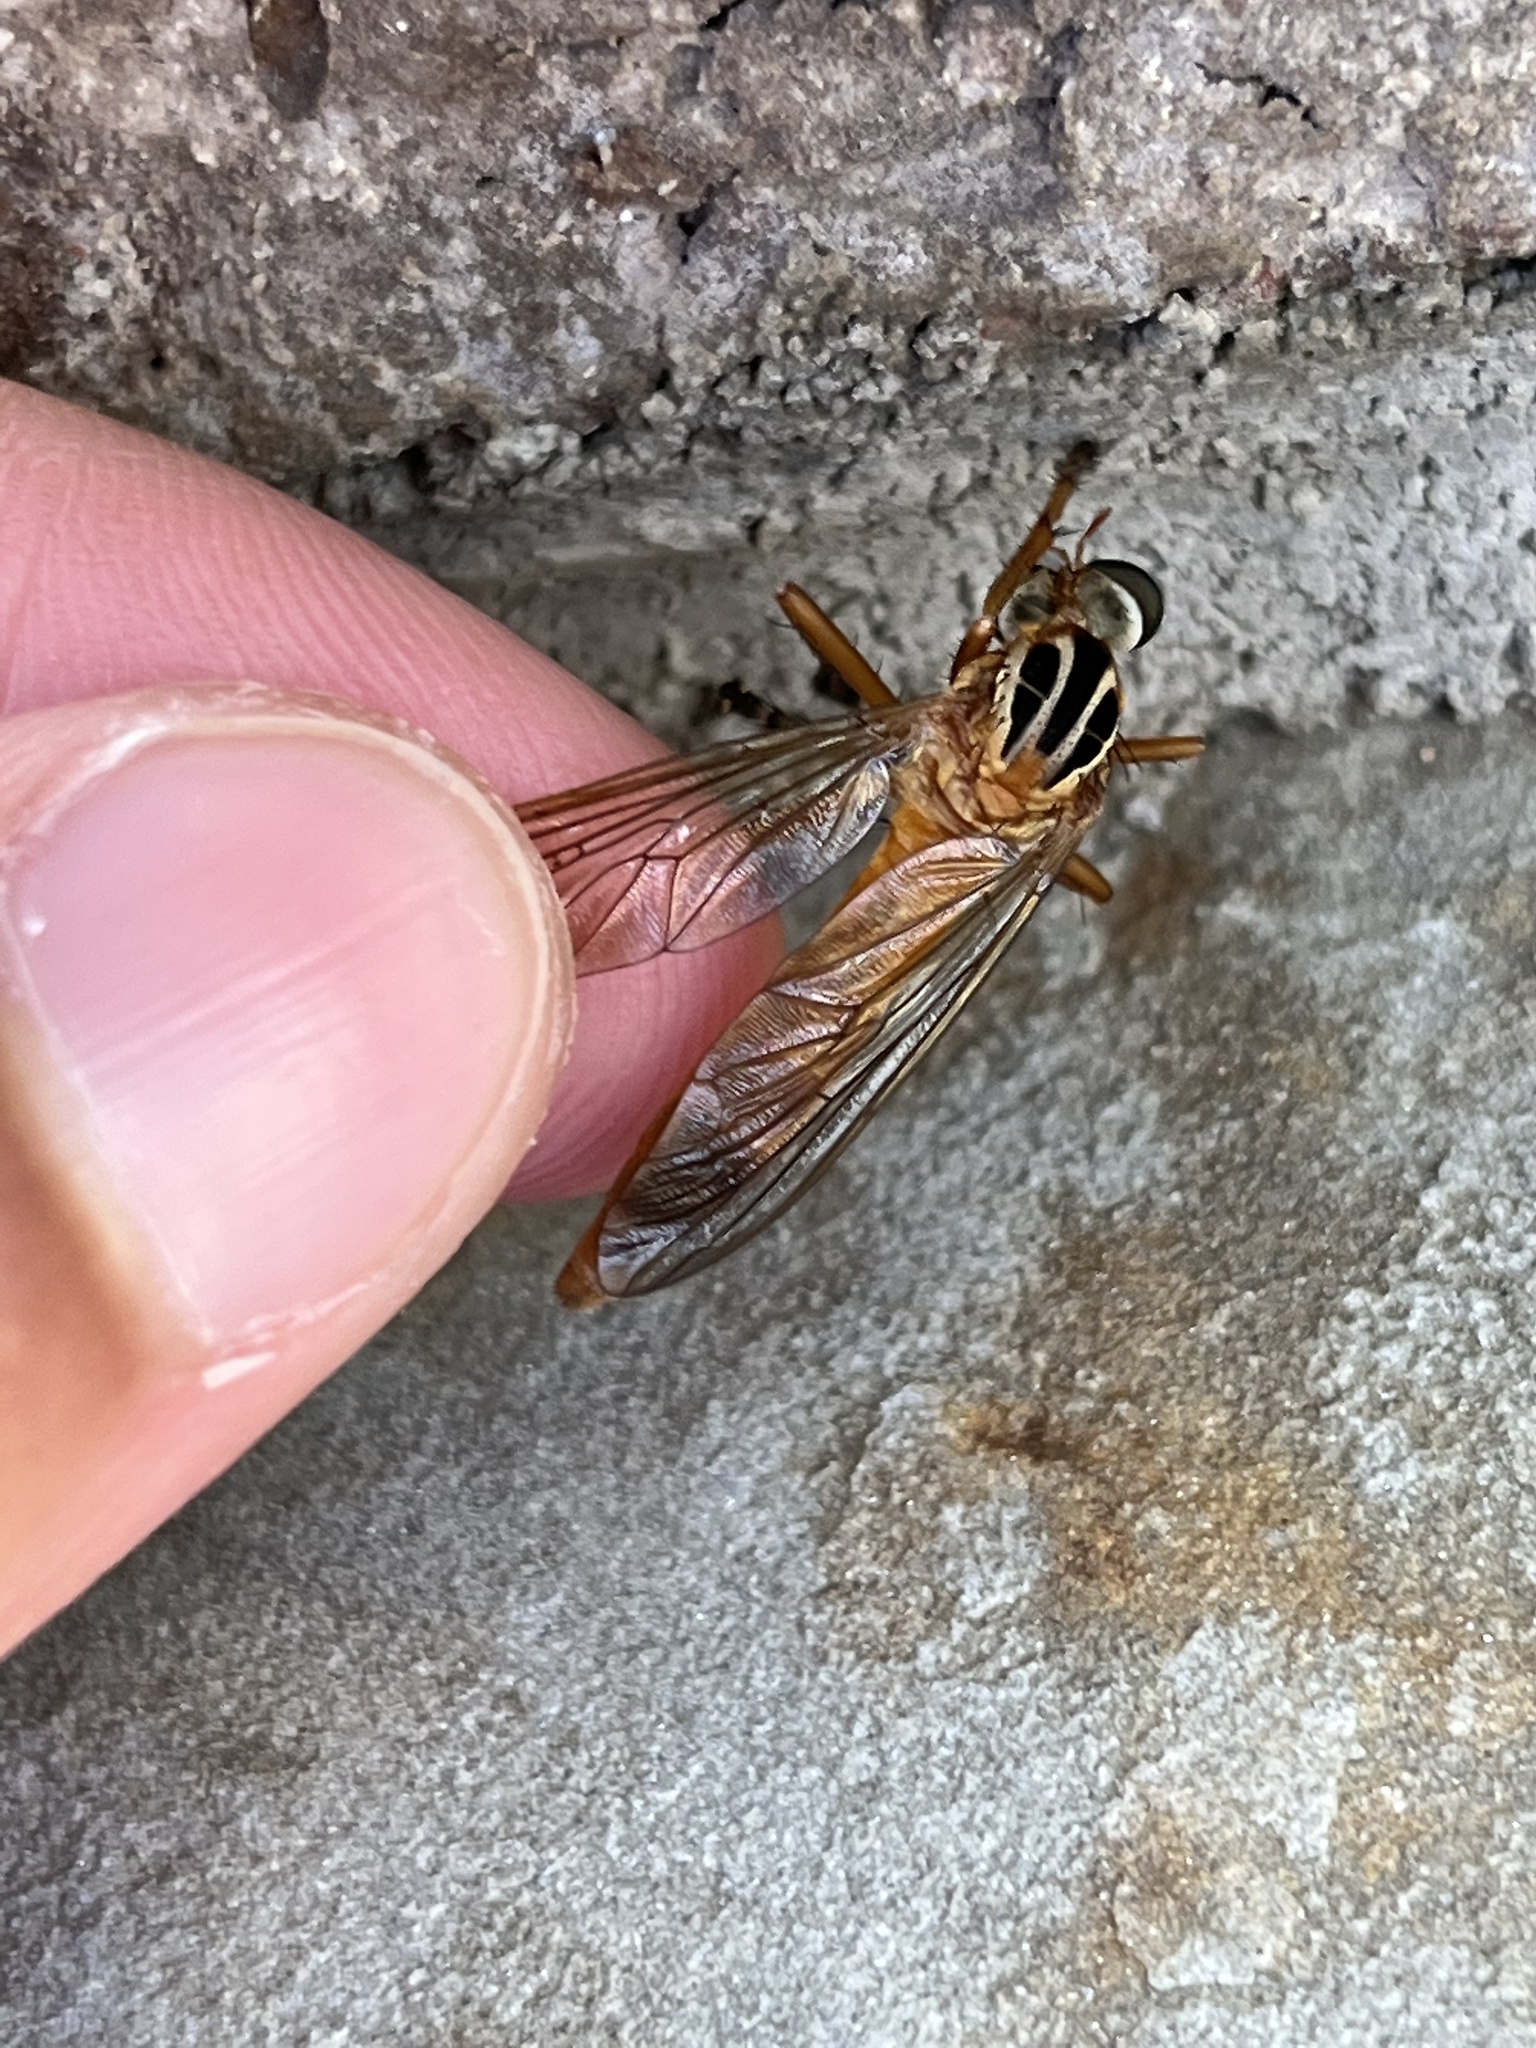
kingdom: Animalia
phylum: Arthropoda
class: Insecta
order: Diptera
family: Asilidae
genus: Diogmites
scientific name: Diogmites neoternatus
